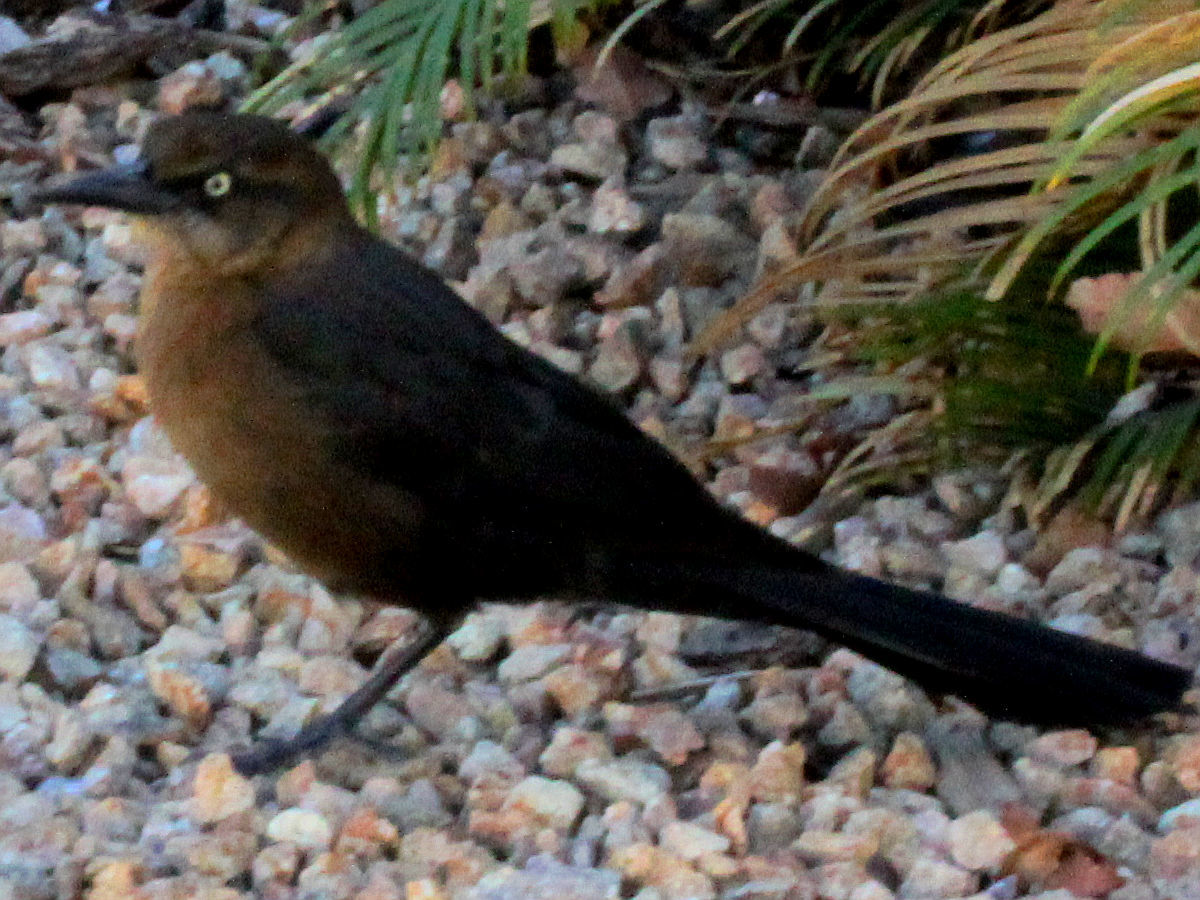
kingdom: Animalia
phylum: Chordata
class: Aves
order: Passeriformes
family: Icteridae
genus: Quiscalus
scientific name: Quiscalus mexicanus
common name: Great-tailed grackle
